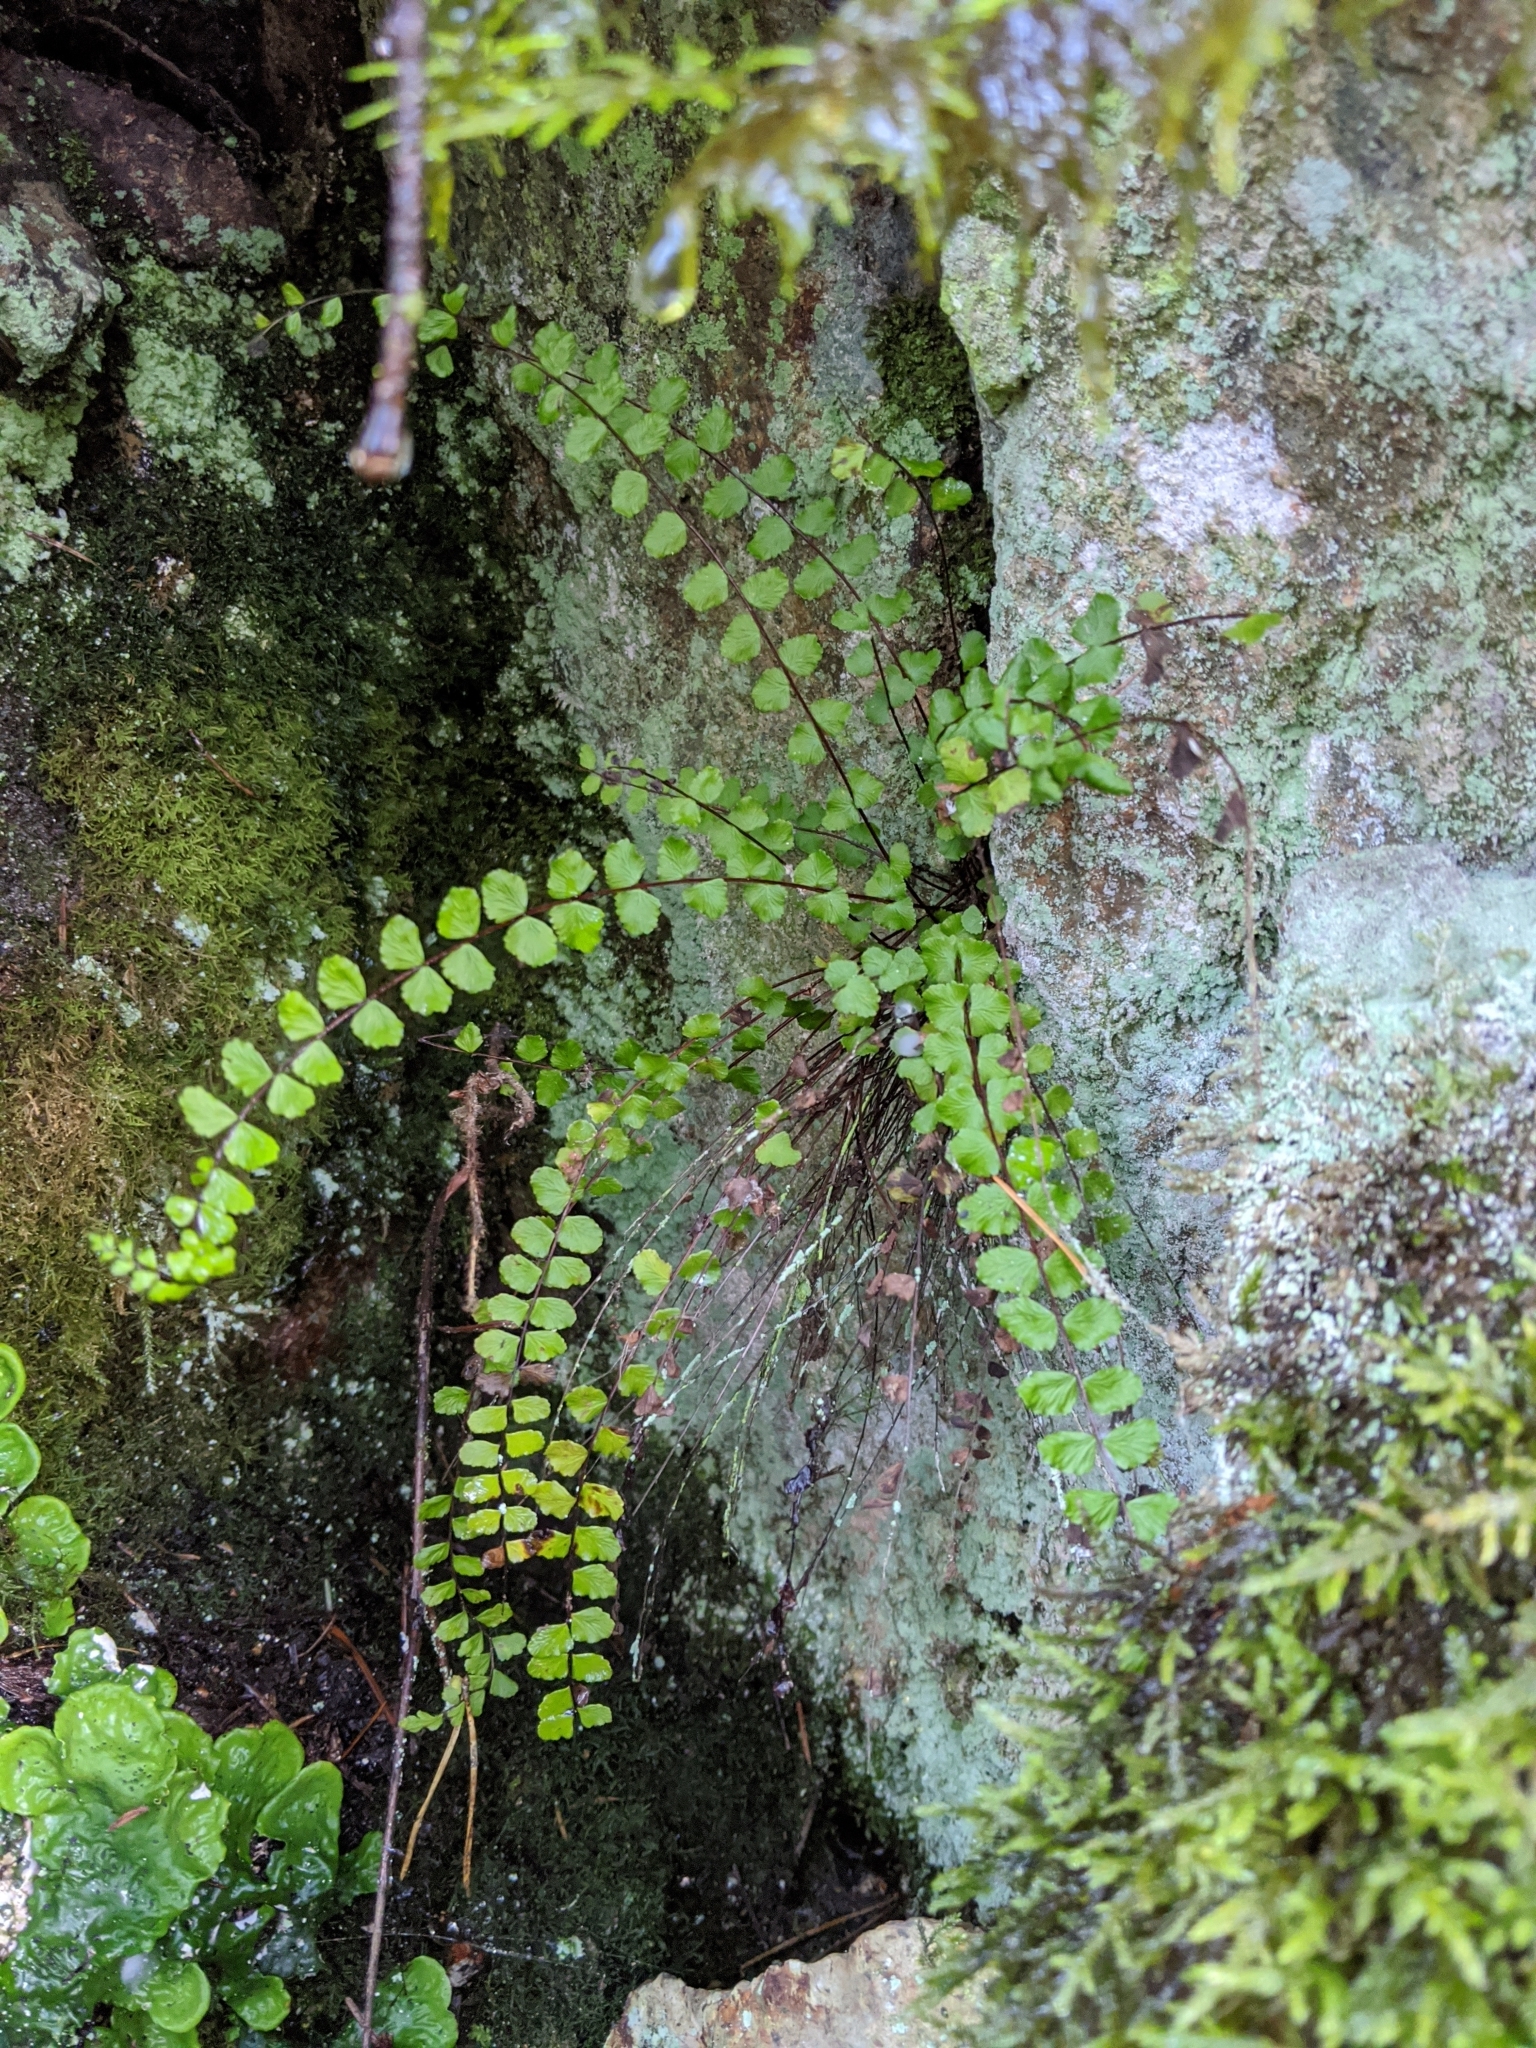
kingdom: Plantae
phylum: Tracheophyta
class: Polypodiopsida
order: Polypodiales
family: Aspleniaceae
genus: Asplenium
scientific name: Asplenium trichomanes
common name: Maidenhair spleenwort
